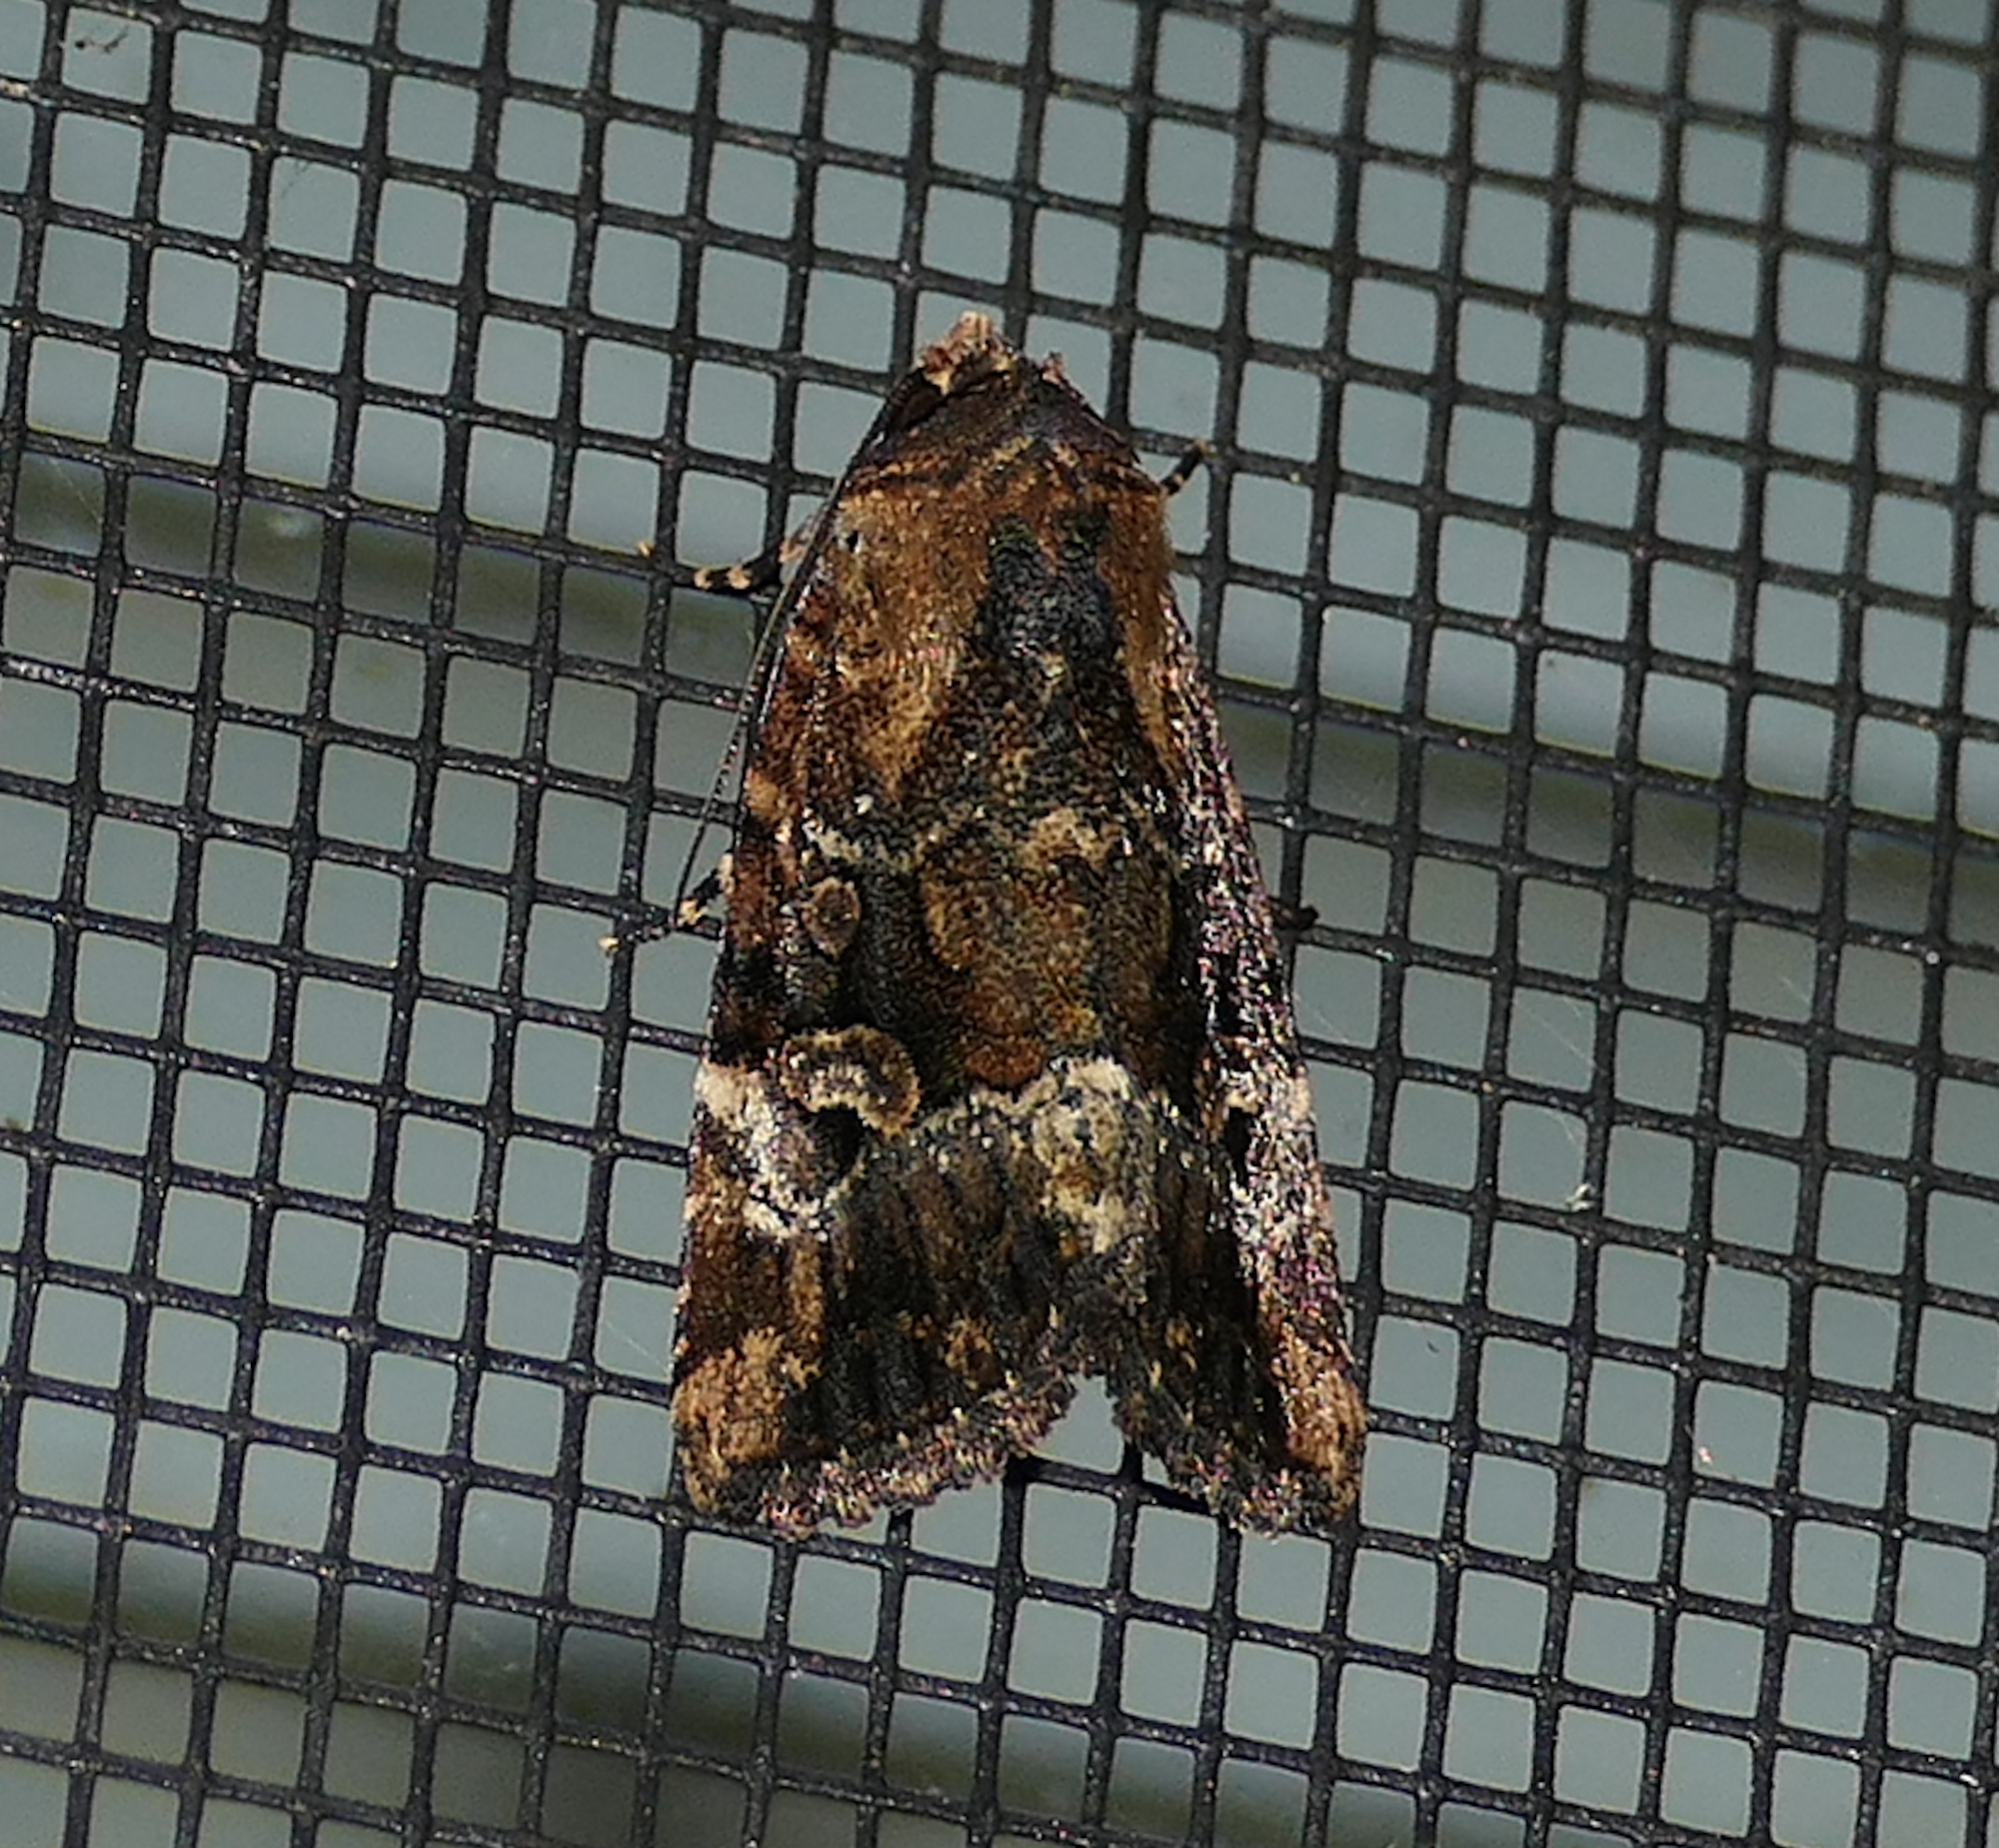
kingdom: Animalia
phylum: Arthropoda
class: Insecta
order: Lepidoptera
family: Noctuidae
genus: Elaphria
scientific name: Elaphria chalcedonia
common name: Chalcedony midget
